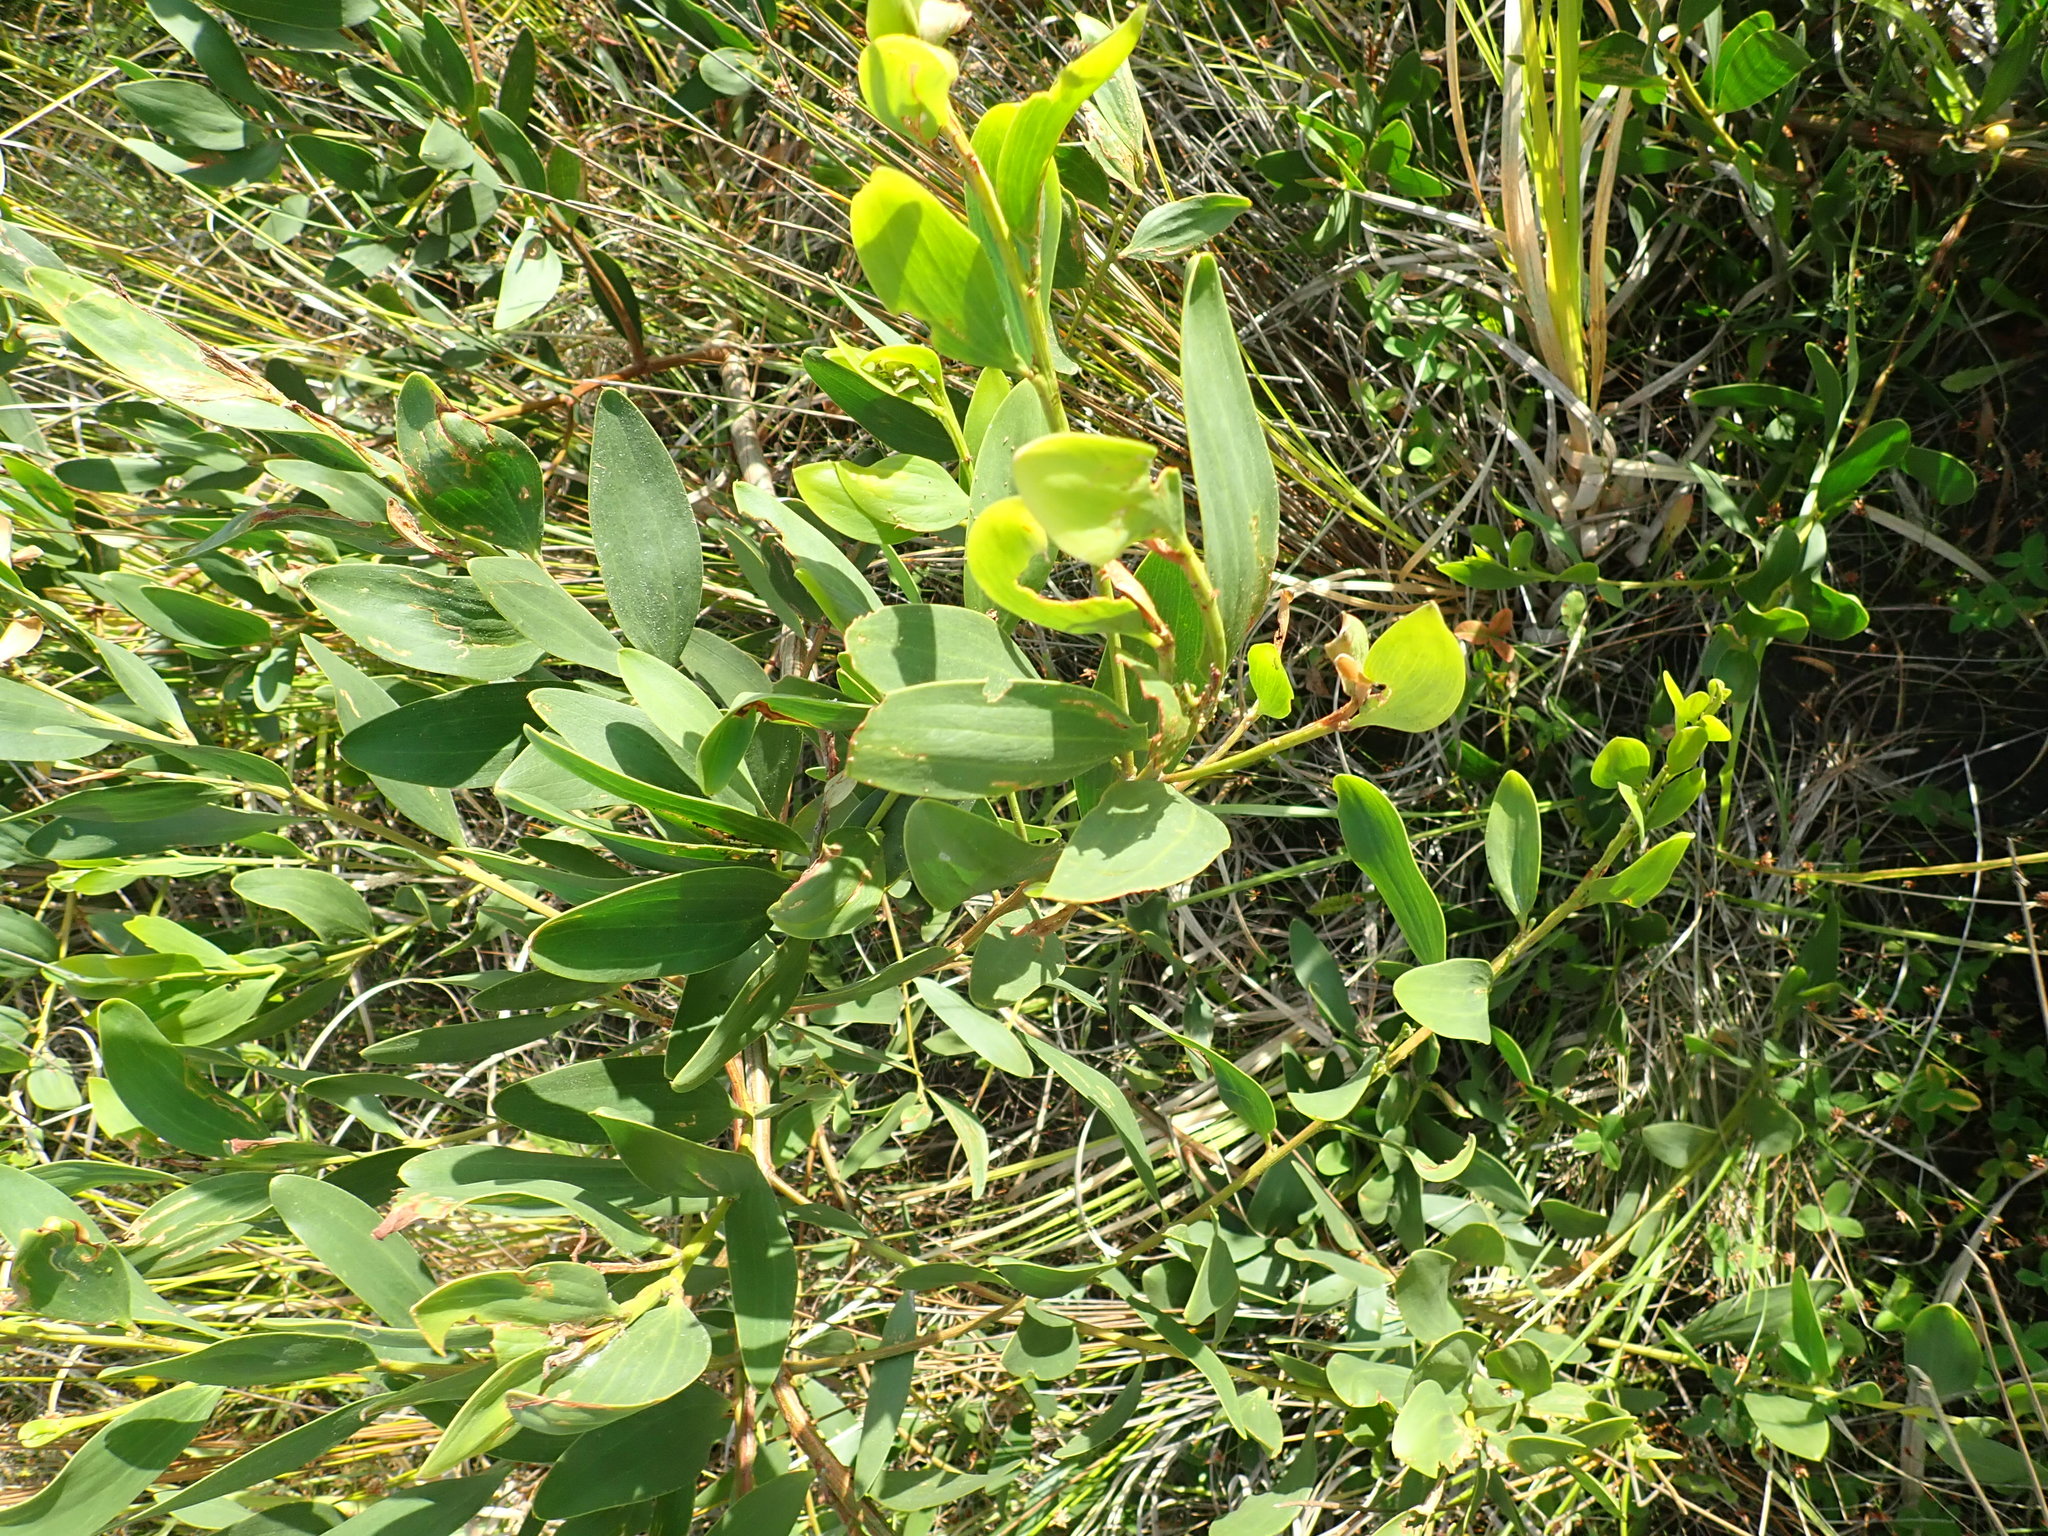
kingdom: Plantae
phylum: Tracheophyta
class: Magnoliopsida
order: Fabales
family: Fabaceae
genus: Acacia
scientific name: Acacia longifolia
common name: Sydney golden wattle
